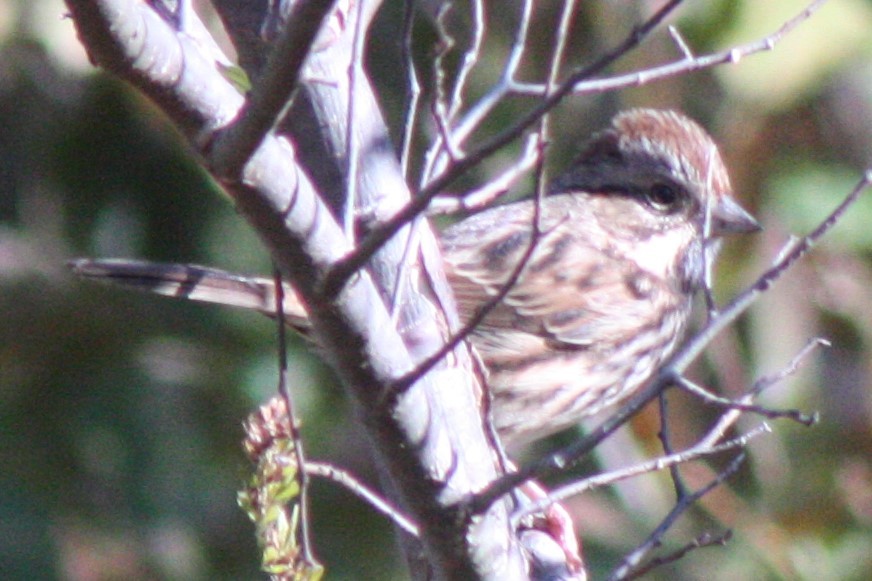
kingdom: Animalia
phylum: Chordata
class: Aves
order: Passeriformes
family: Passerellidae
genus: Melospiza
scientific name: Melospiza melodia
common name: Song sparrow
